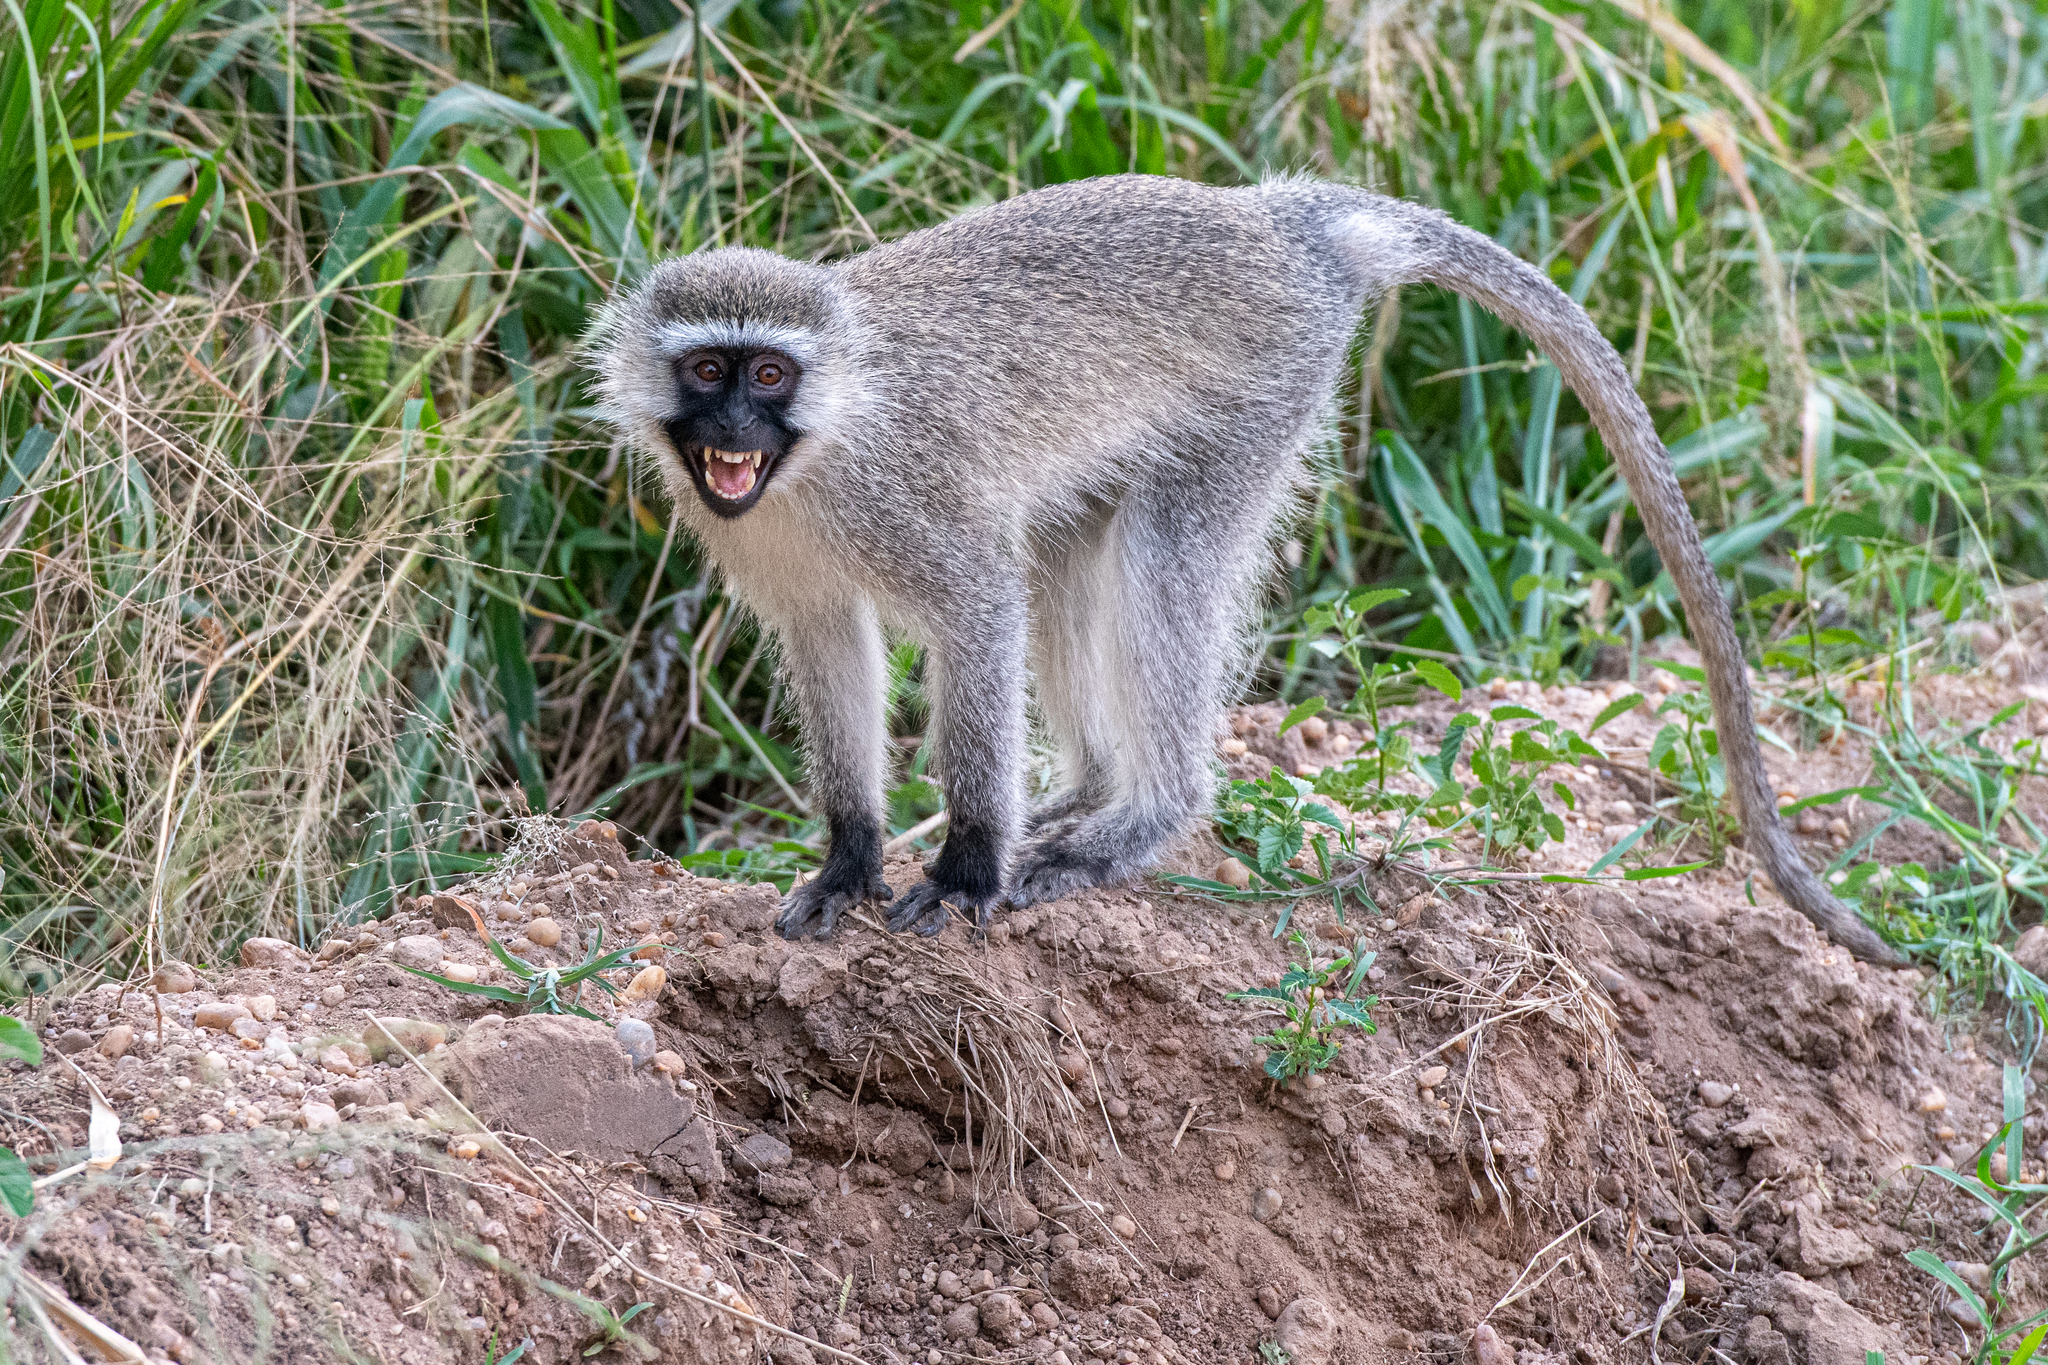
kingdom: Animalia
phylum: Chordata
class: Mammalia
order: Primates
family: Cercopithecidae
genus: Chlorocebus
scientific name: Chlorocebus tantalus
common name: Tantalus monkey
